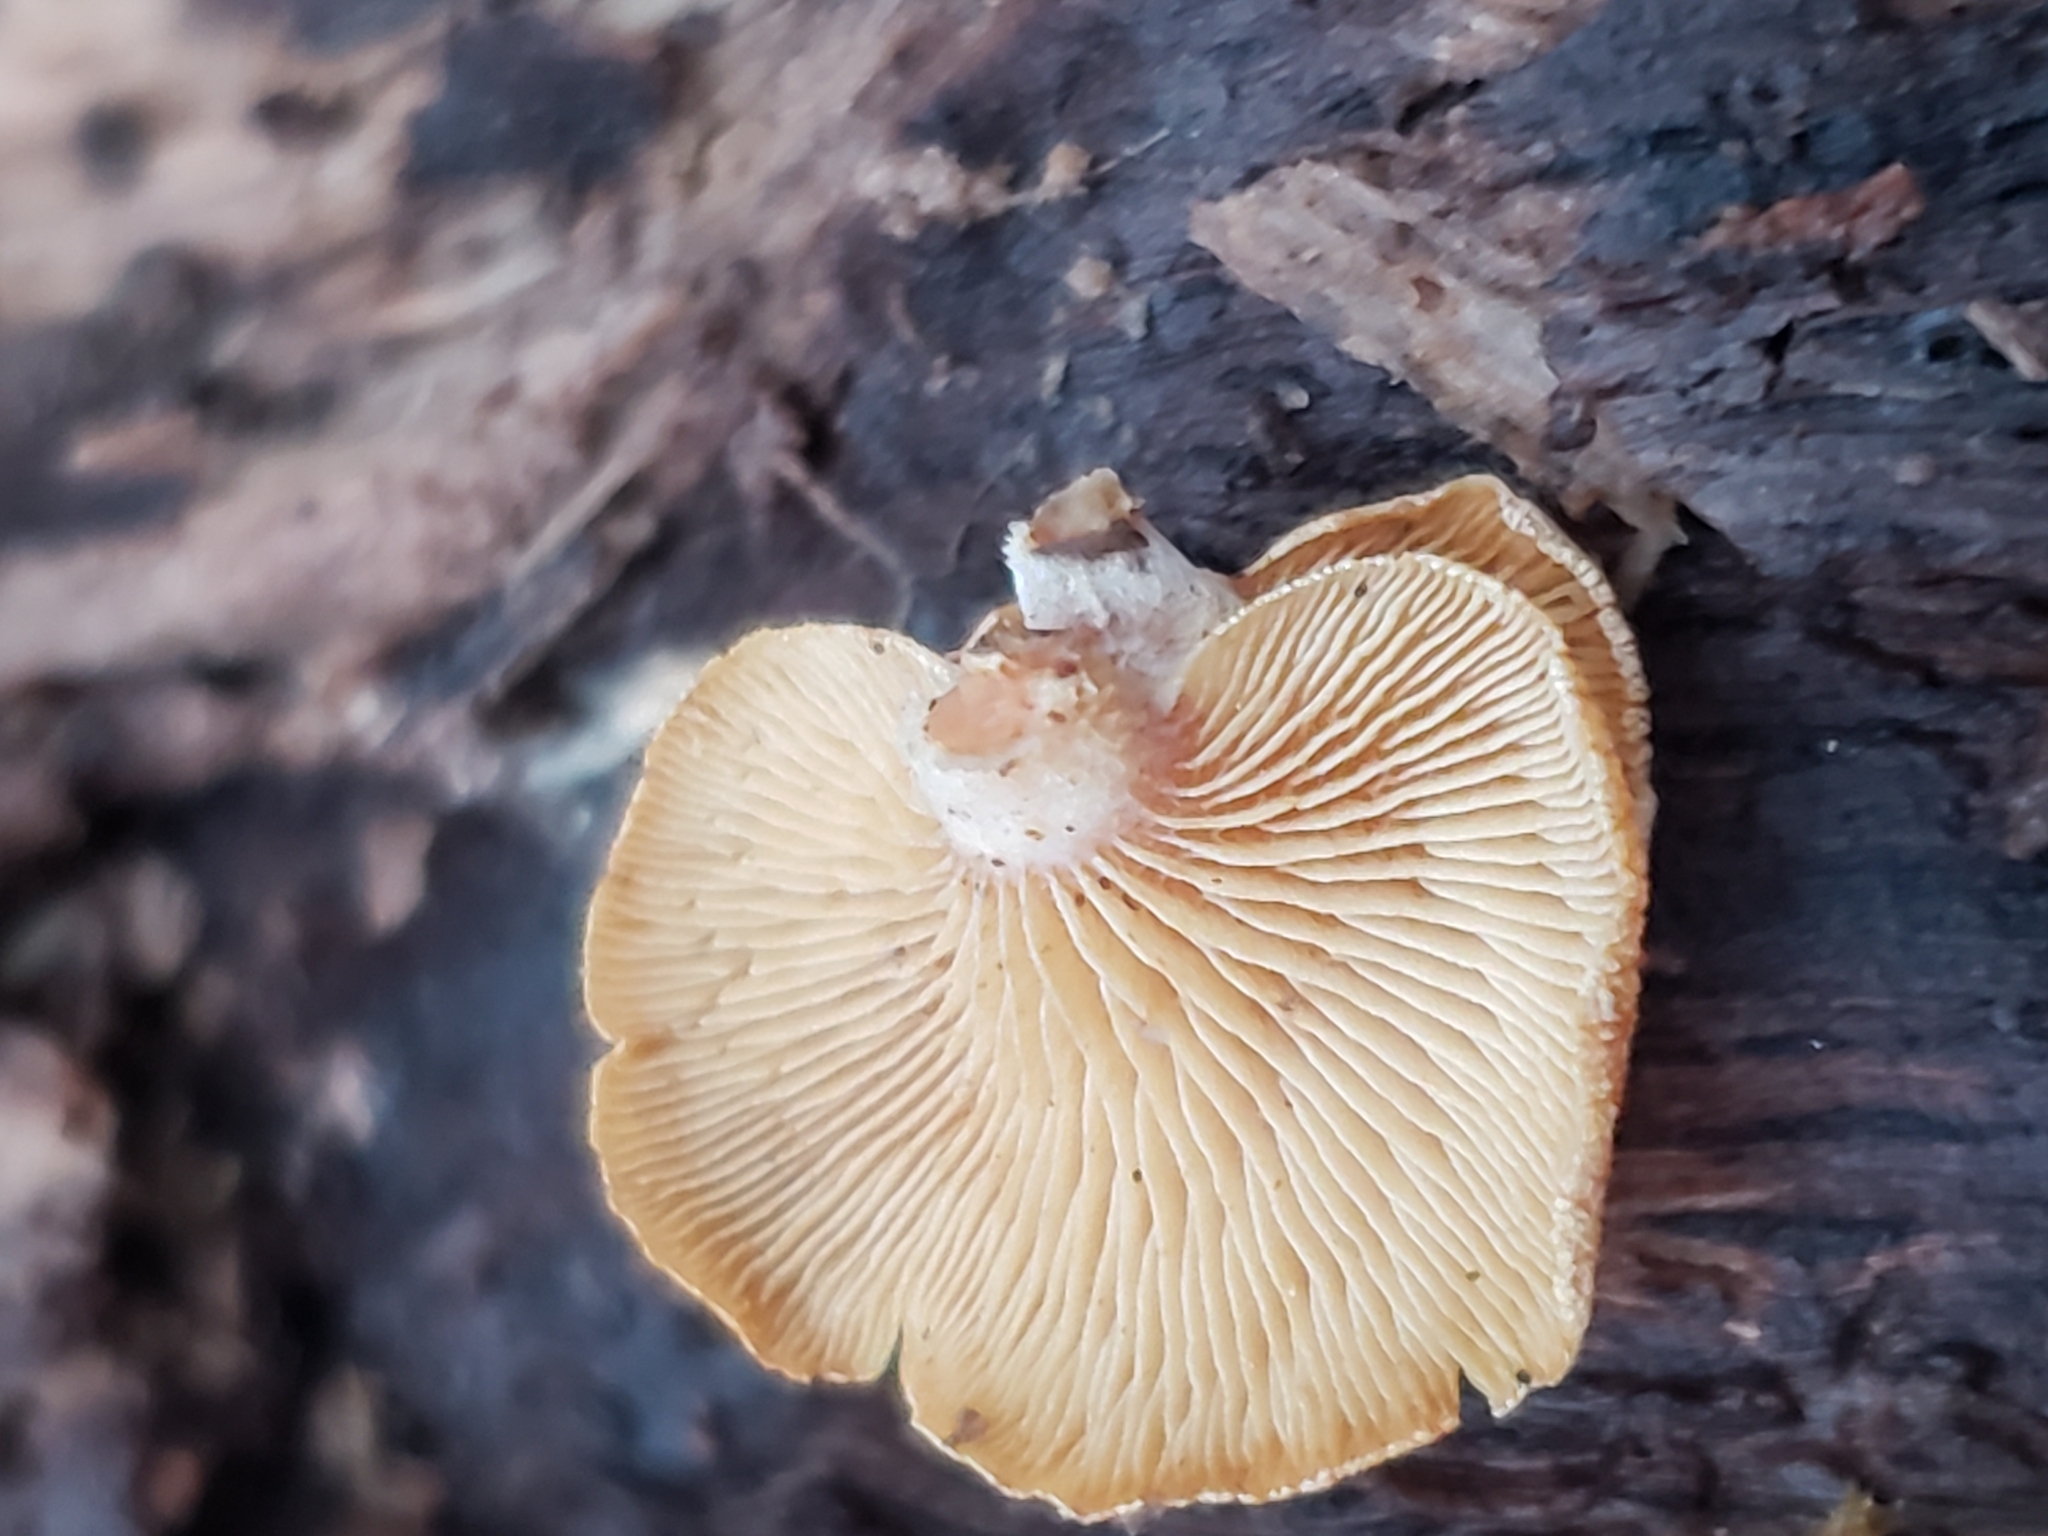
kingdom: Fungi
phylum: Basidiomycota
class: Agaricomycetes
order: Agaricales
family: Mycenaceae
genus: Panellus
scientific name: Panellus stipticus
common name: Bitter oysterling
